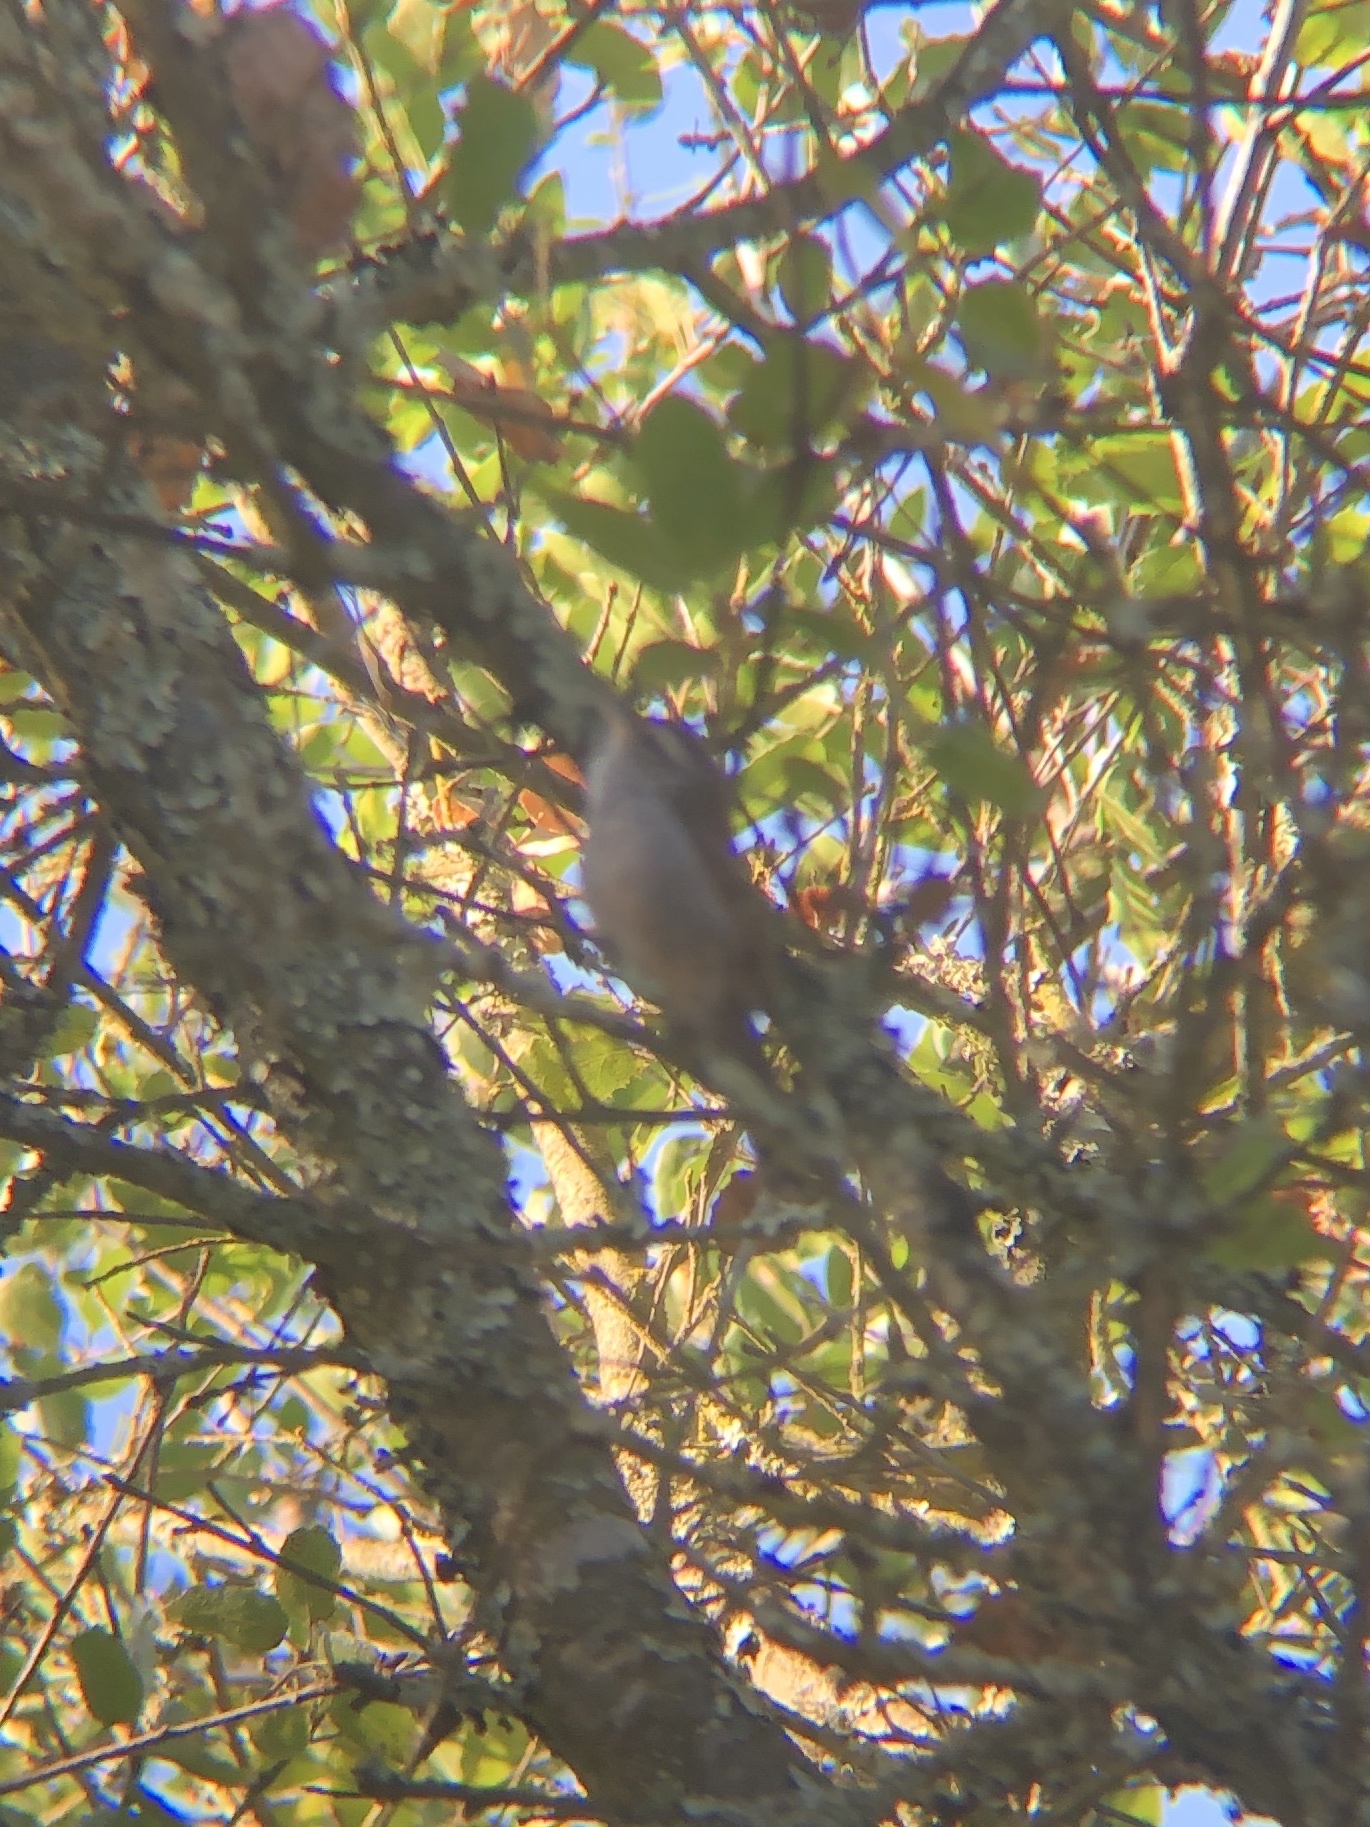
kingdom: Animalia
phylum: Chordata
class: Aves
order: Passeriformes
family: Troglodytidae
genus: Thryomanes
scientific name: Thryomanes bewickii
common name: Bewick's wren
